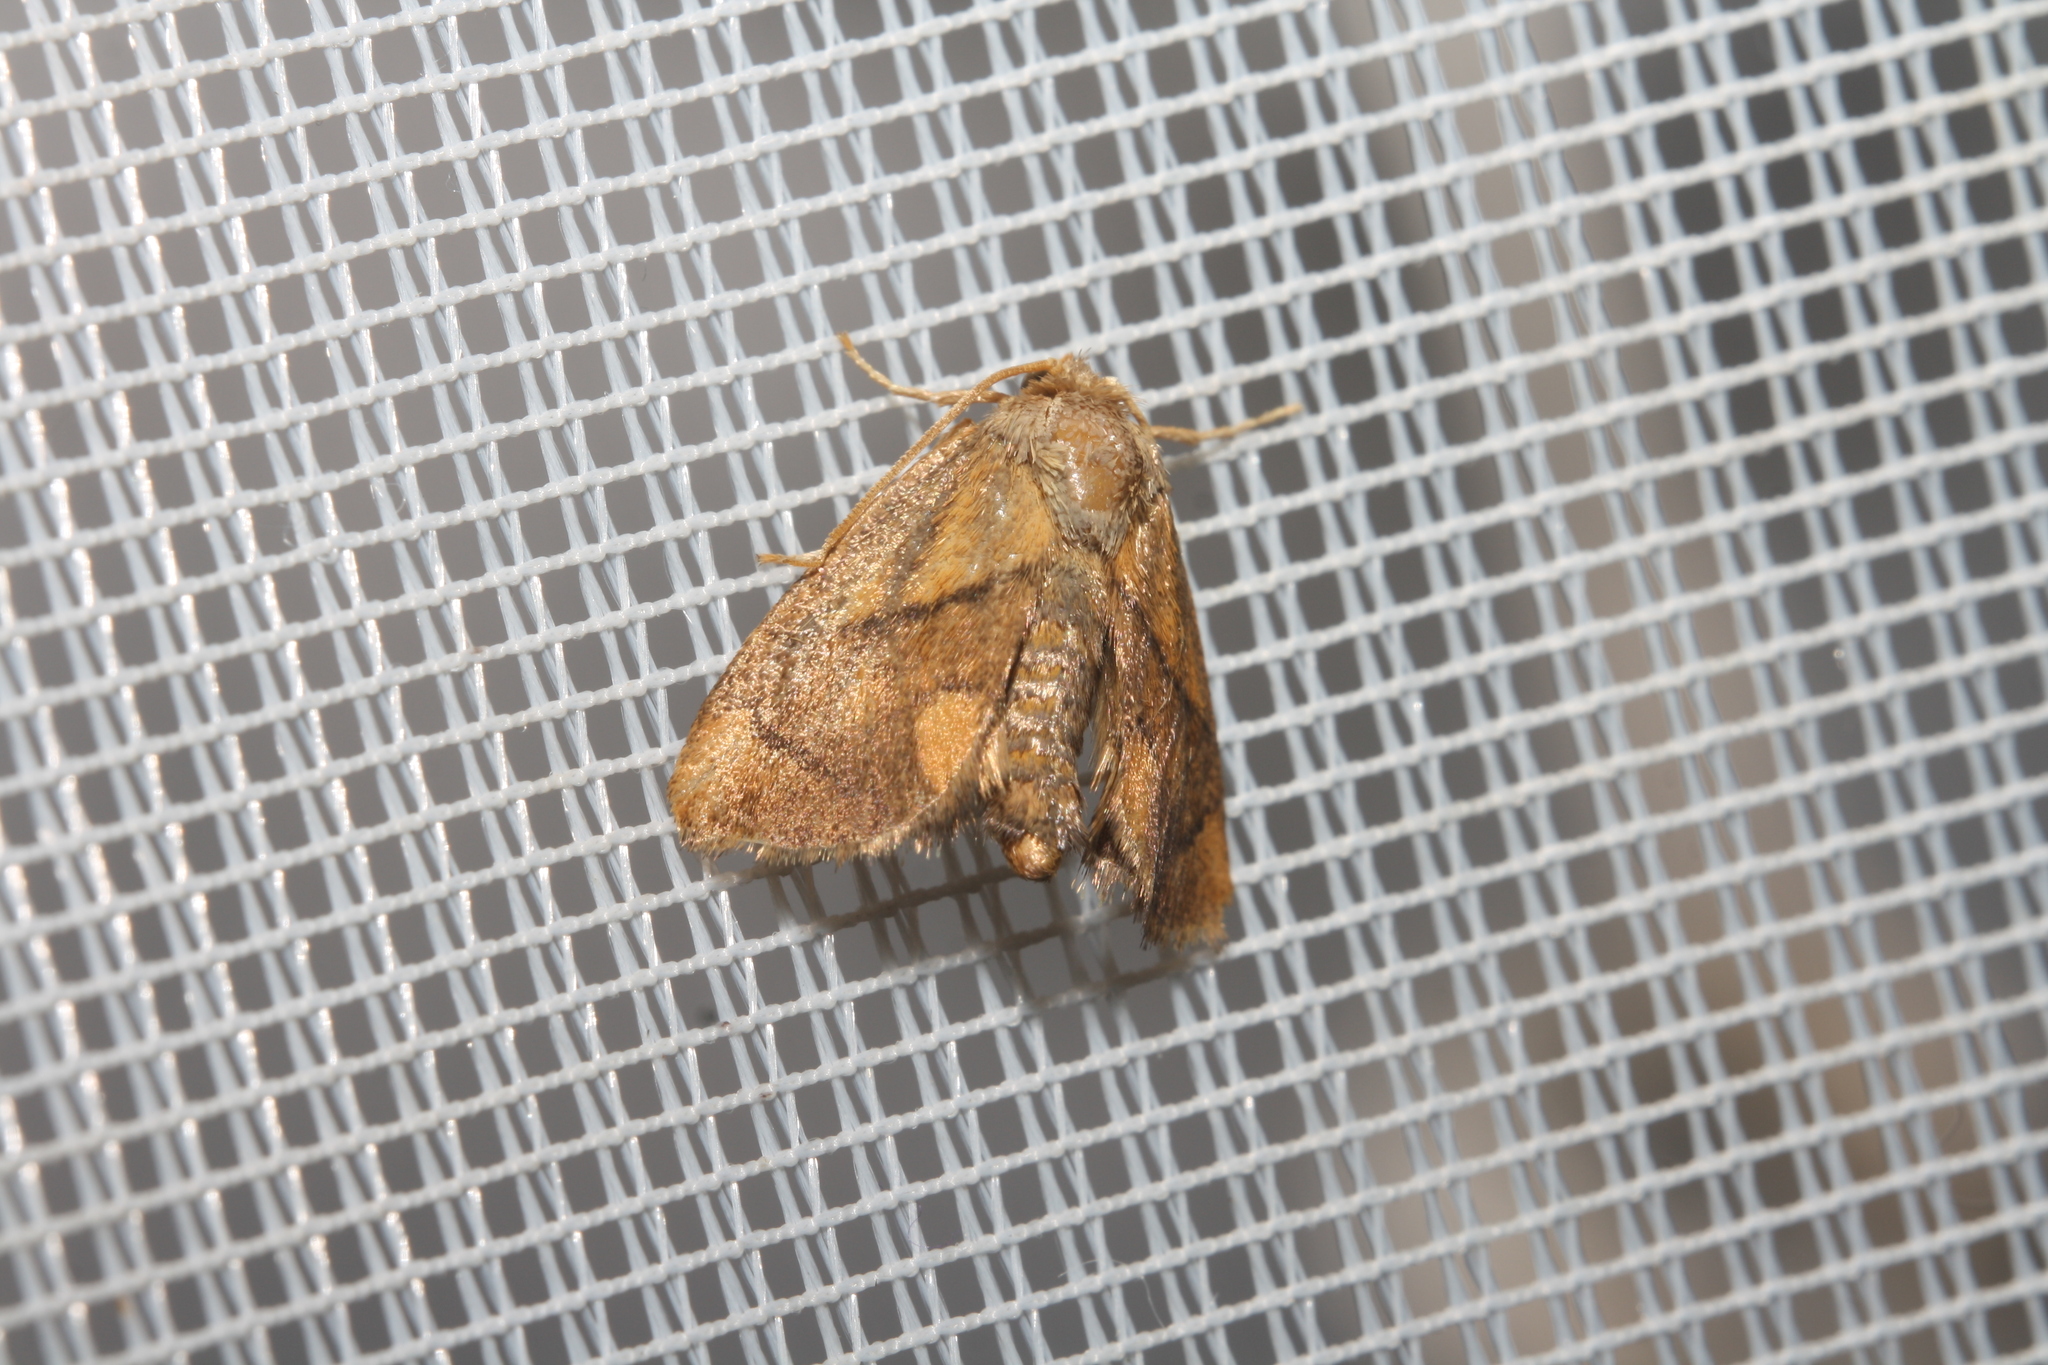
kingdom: Animalia
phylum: Arthropoda
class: Insecta
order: Lepidoptera
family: Limacodidae
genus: Apoda
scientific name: Apoda limacodes
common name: Festoon
